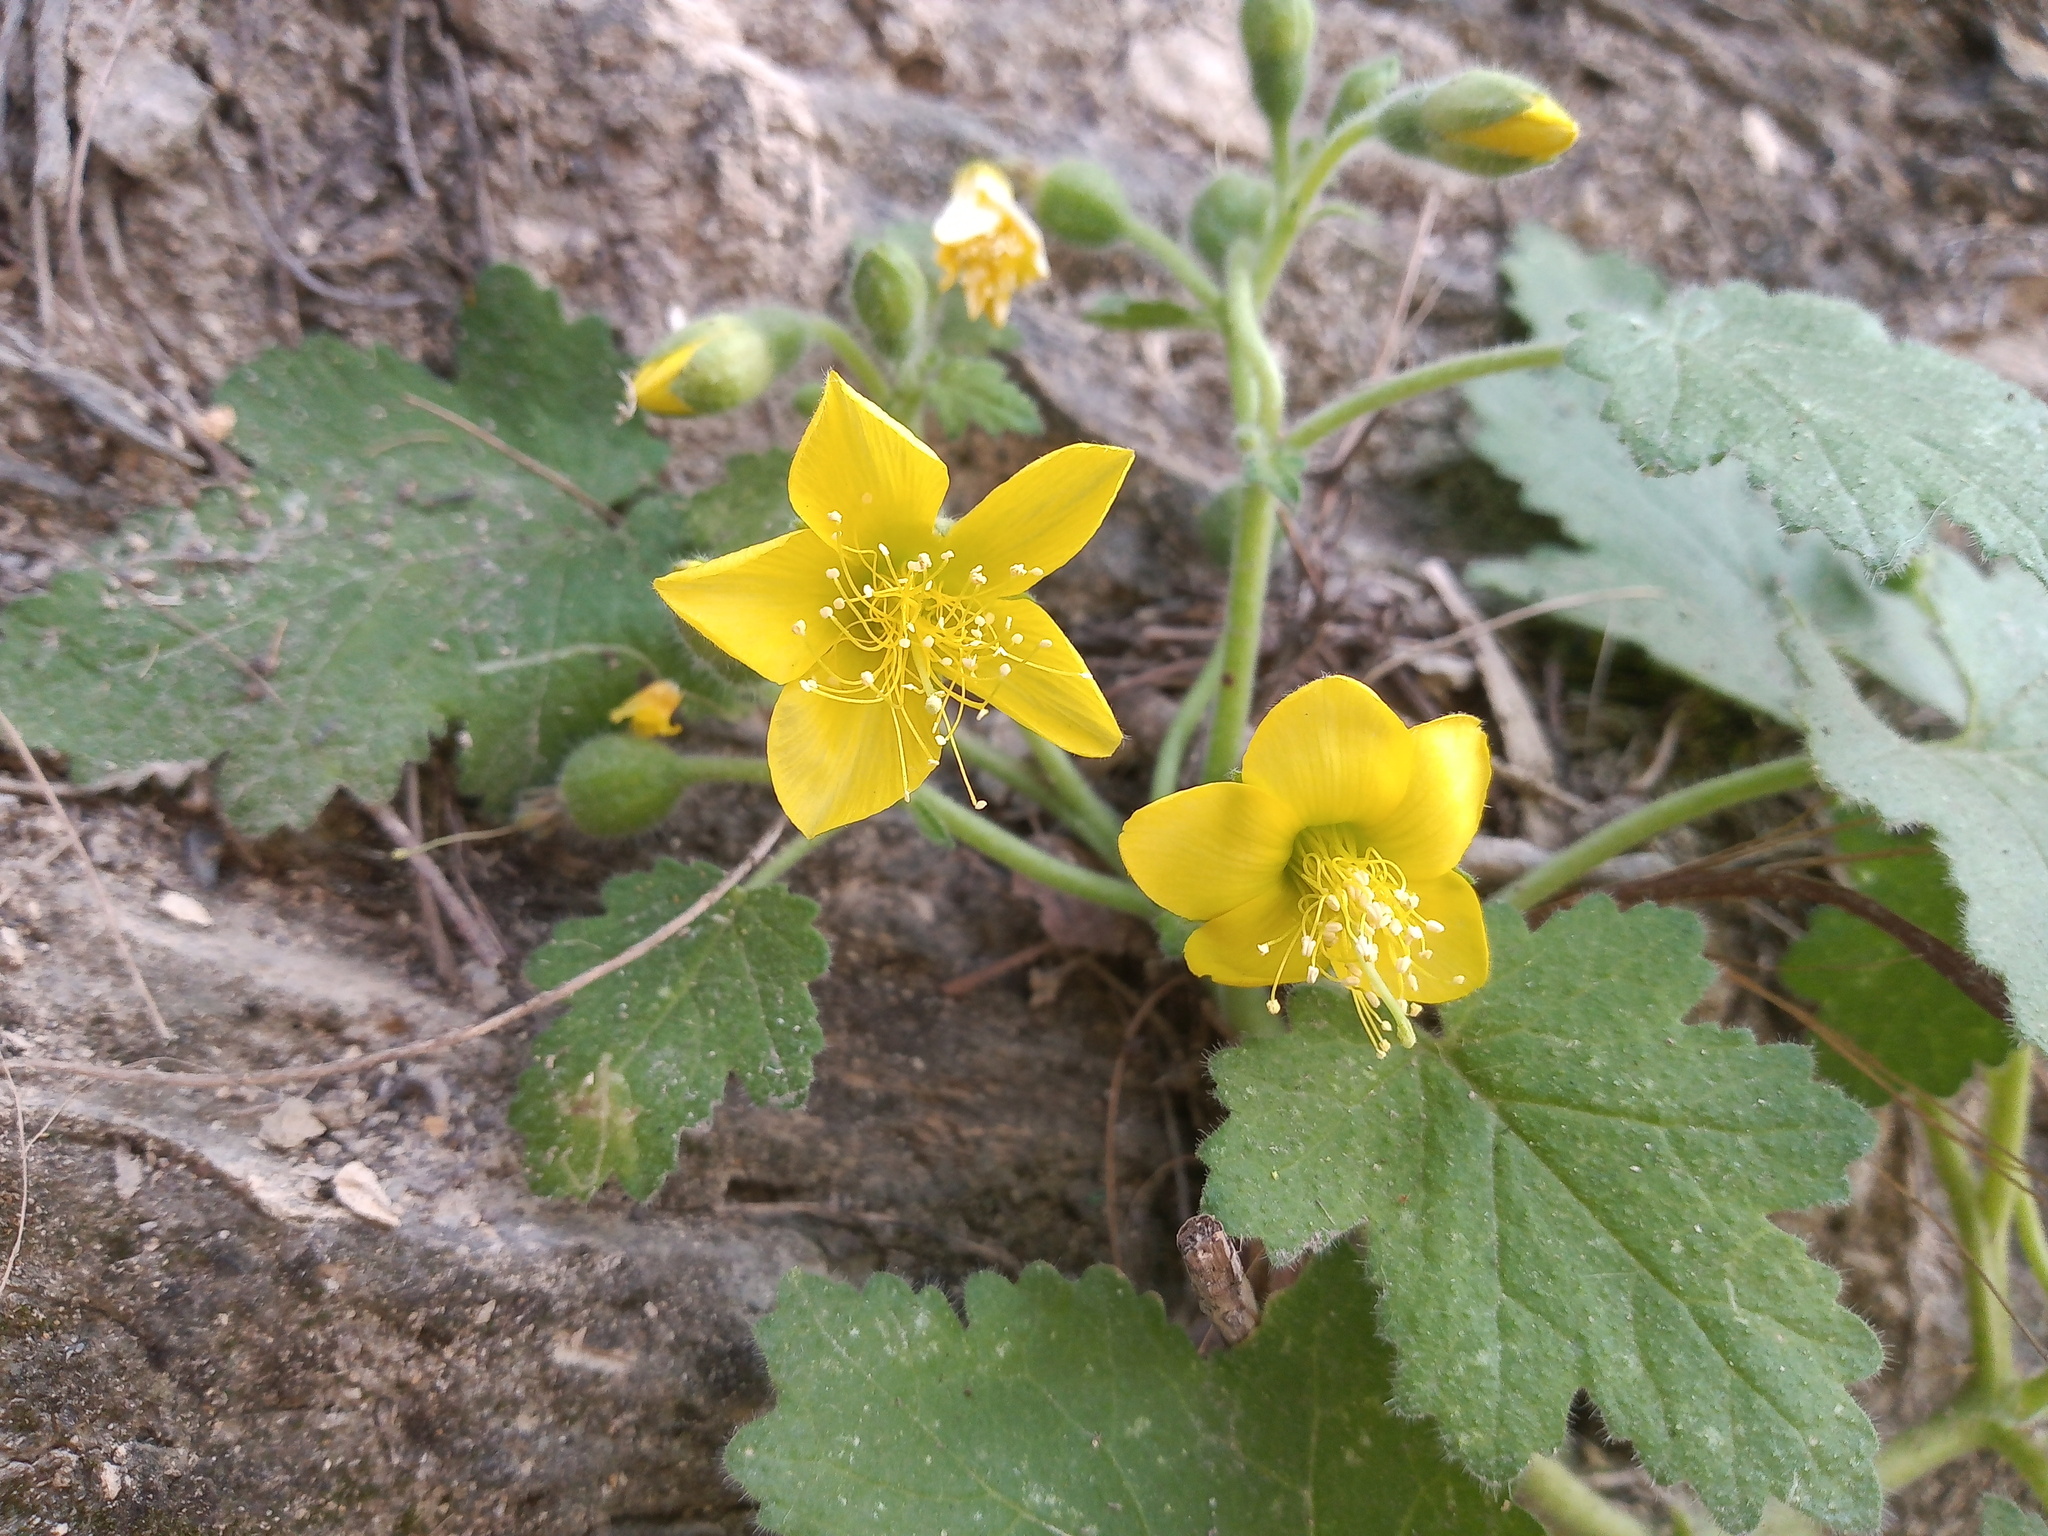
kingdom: Plantae
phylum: Tracheophyta
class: Magnoliopsida
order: Cornales
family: Loasaceae
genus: Eucnide
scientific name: Eucnide lobata
